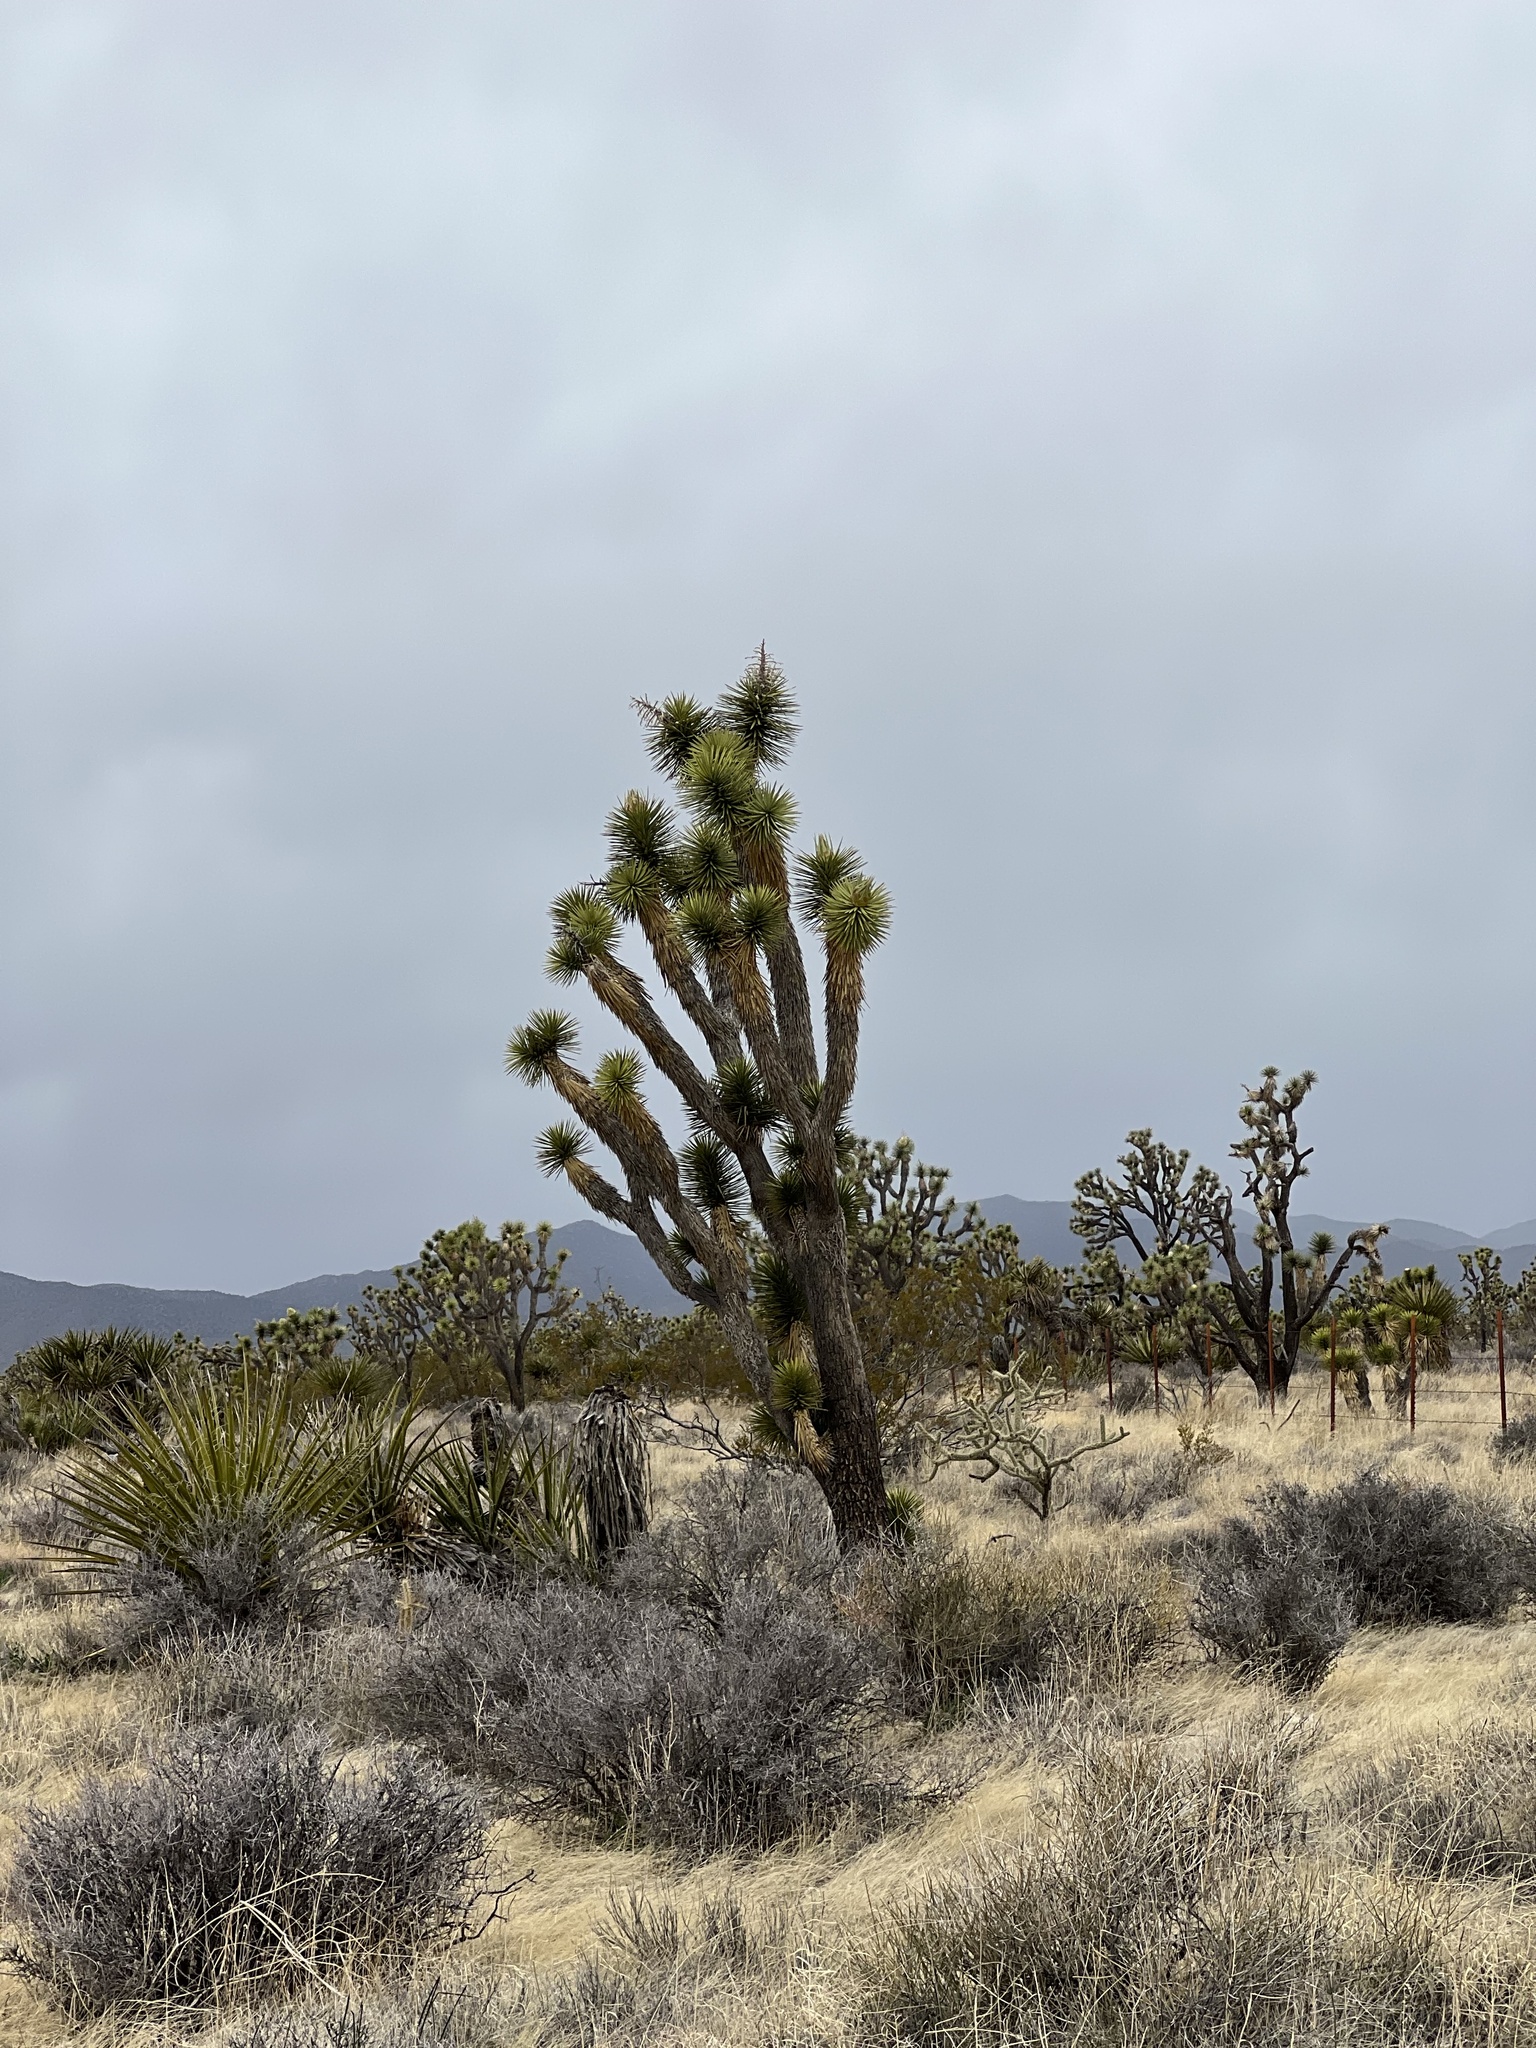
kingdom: Plantae
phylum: Tracheophyta
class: Liliopsida
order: Asparagales
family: Asparagaceae
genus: Yucca
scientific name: Yucca brevifolia
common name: Joshua tree
